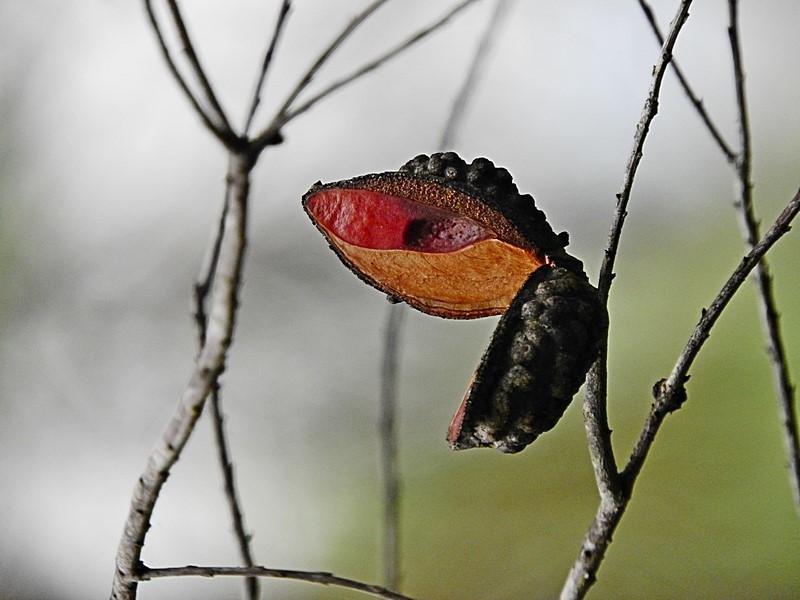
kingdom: Plantae
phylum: Tracheophyta
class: Magnoliopsida
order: Proteales
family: Proteaceae
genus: Hakea
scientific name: Hakea macraeana
